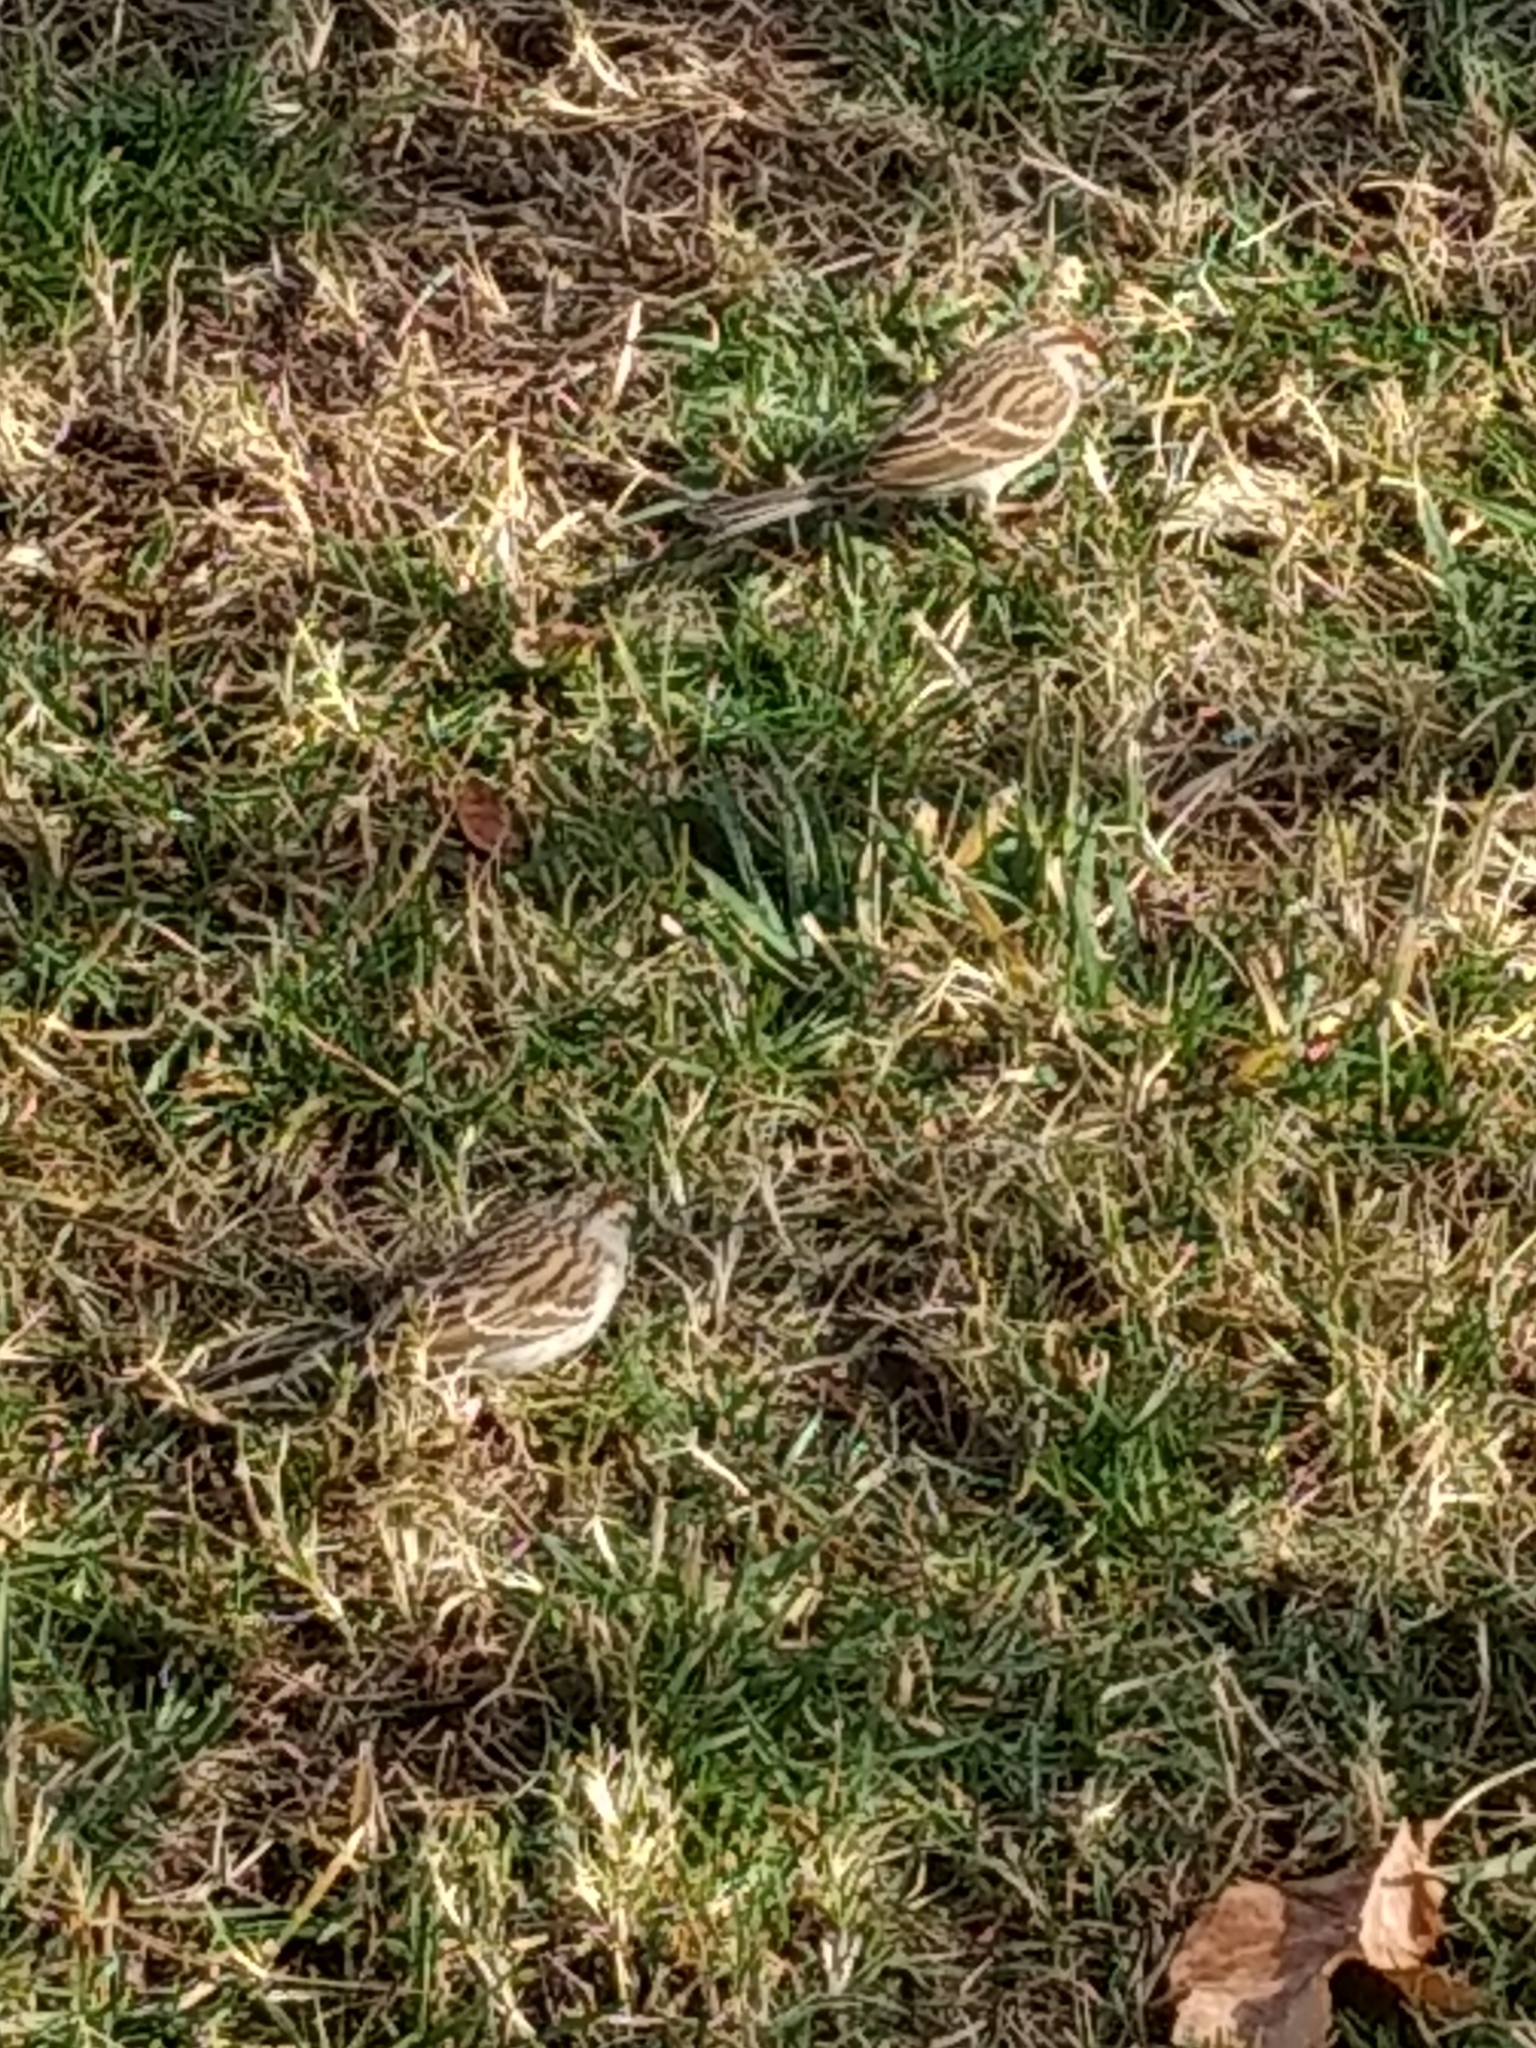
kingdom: Animalia
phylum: Chordata
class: Aves
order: Passeriformes
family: Passerellidae
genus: Spizella
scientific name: Spizella passerina
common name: Chipping sparrow
